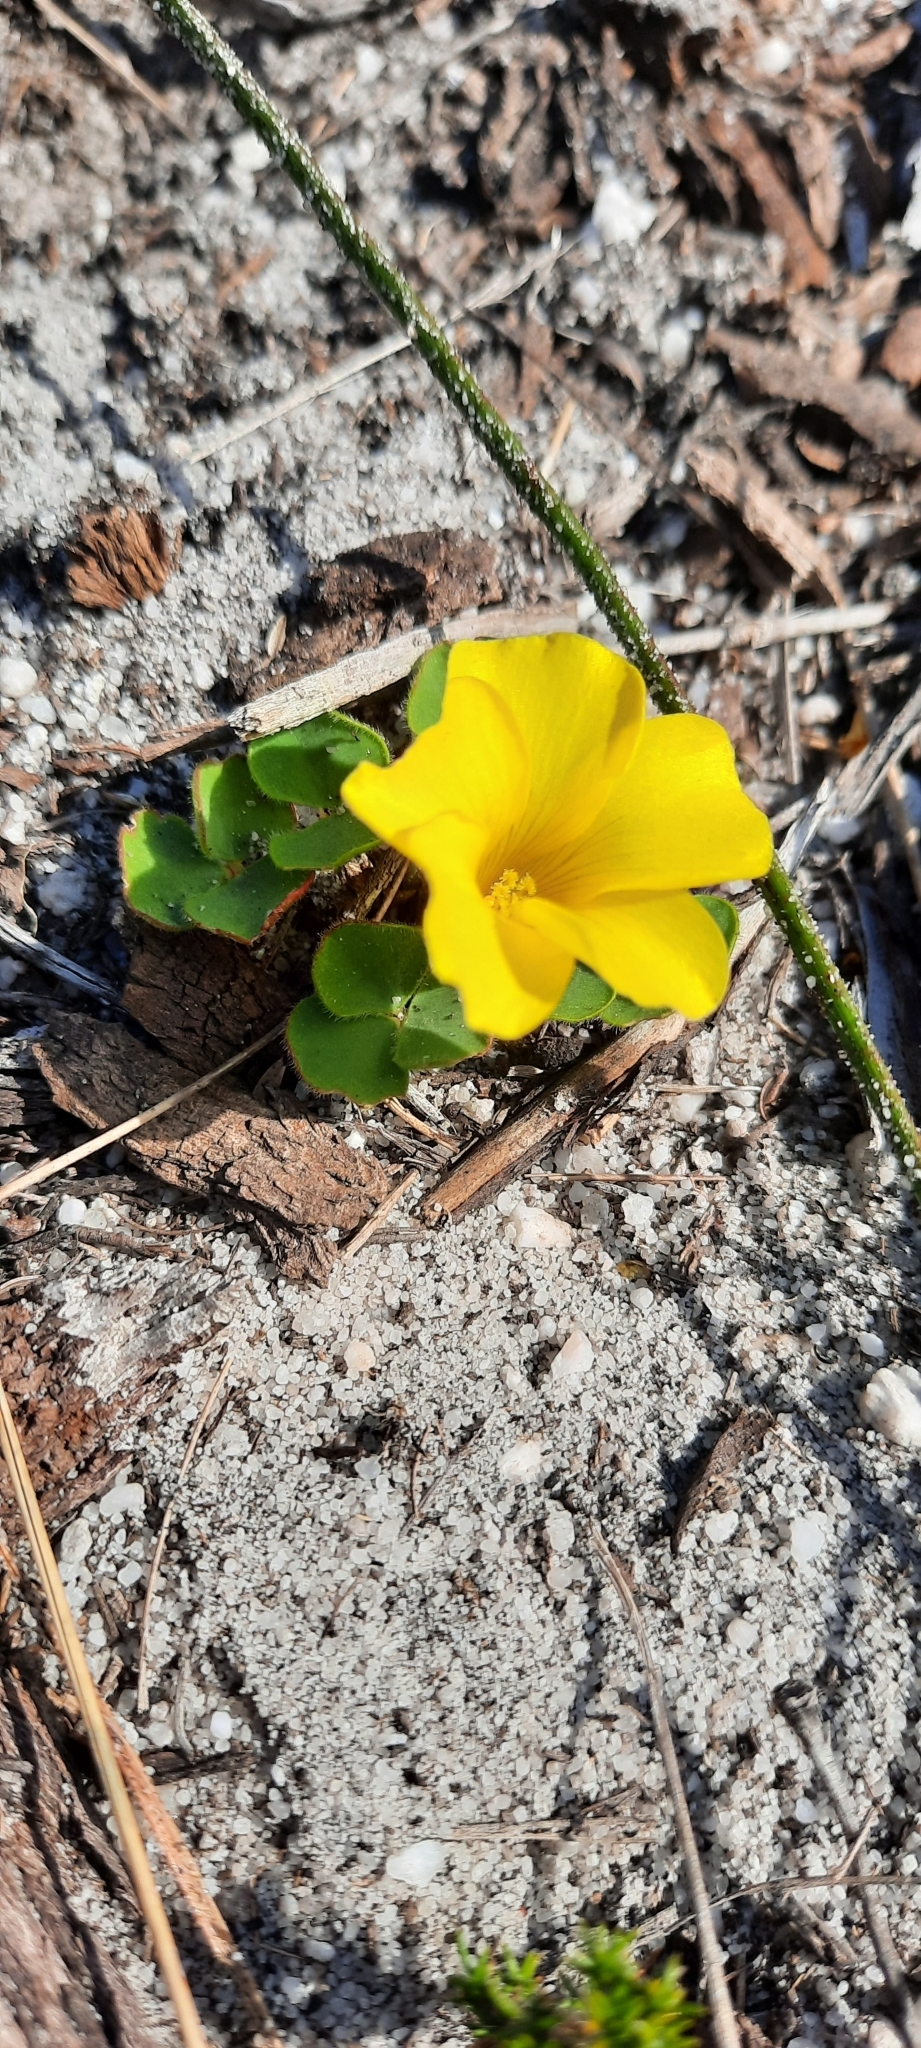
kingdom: Plantae
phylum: Tracheophyta
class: Magnoliopsida
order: Oxalidales
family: Oxalidaceae
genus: Oxalis
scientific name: Oxalis luteola
